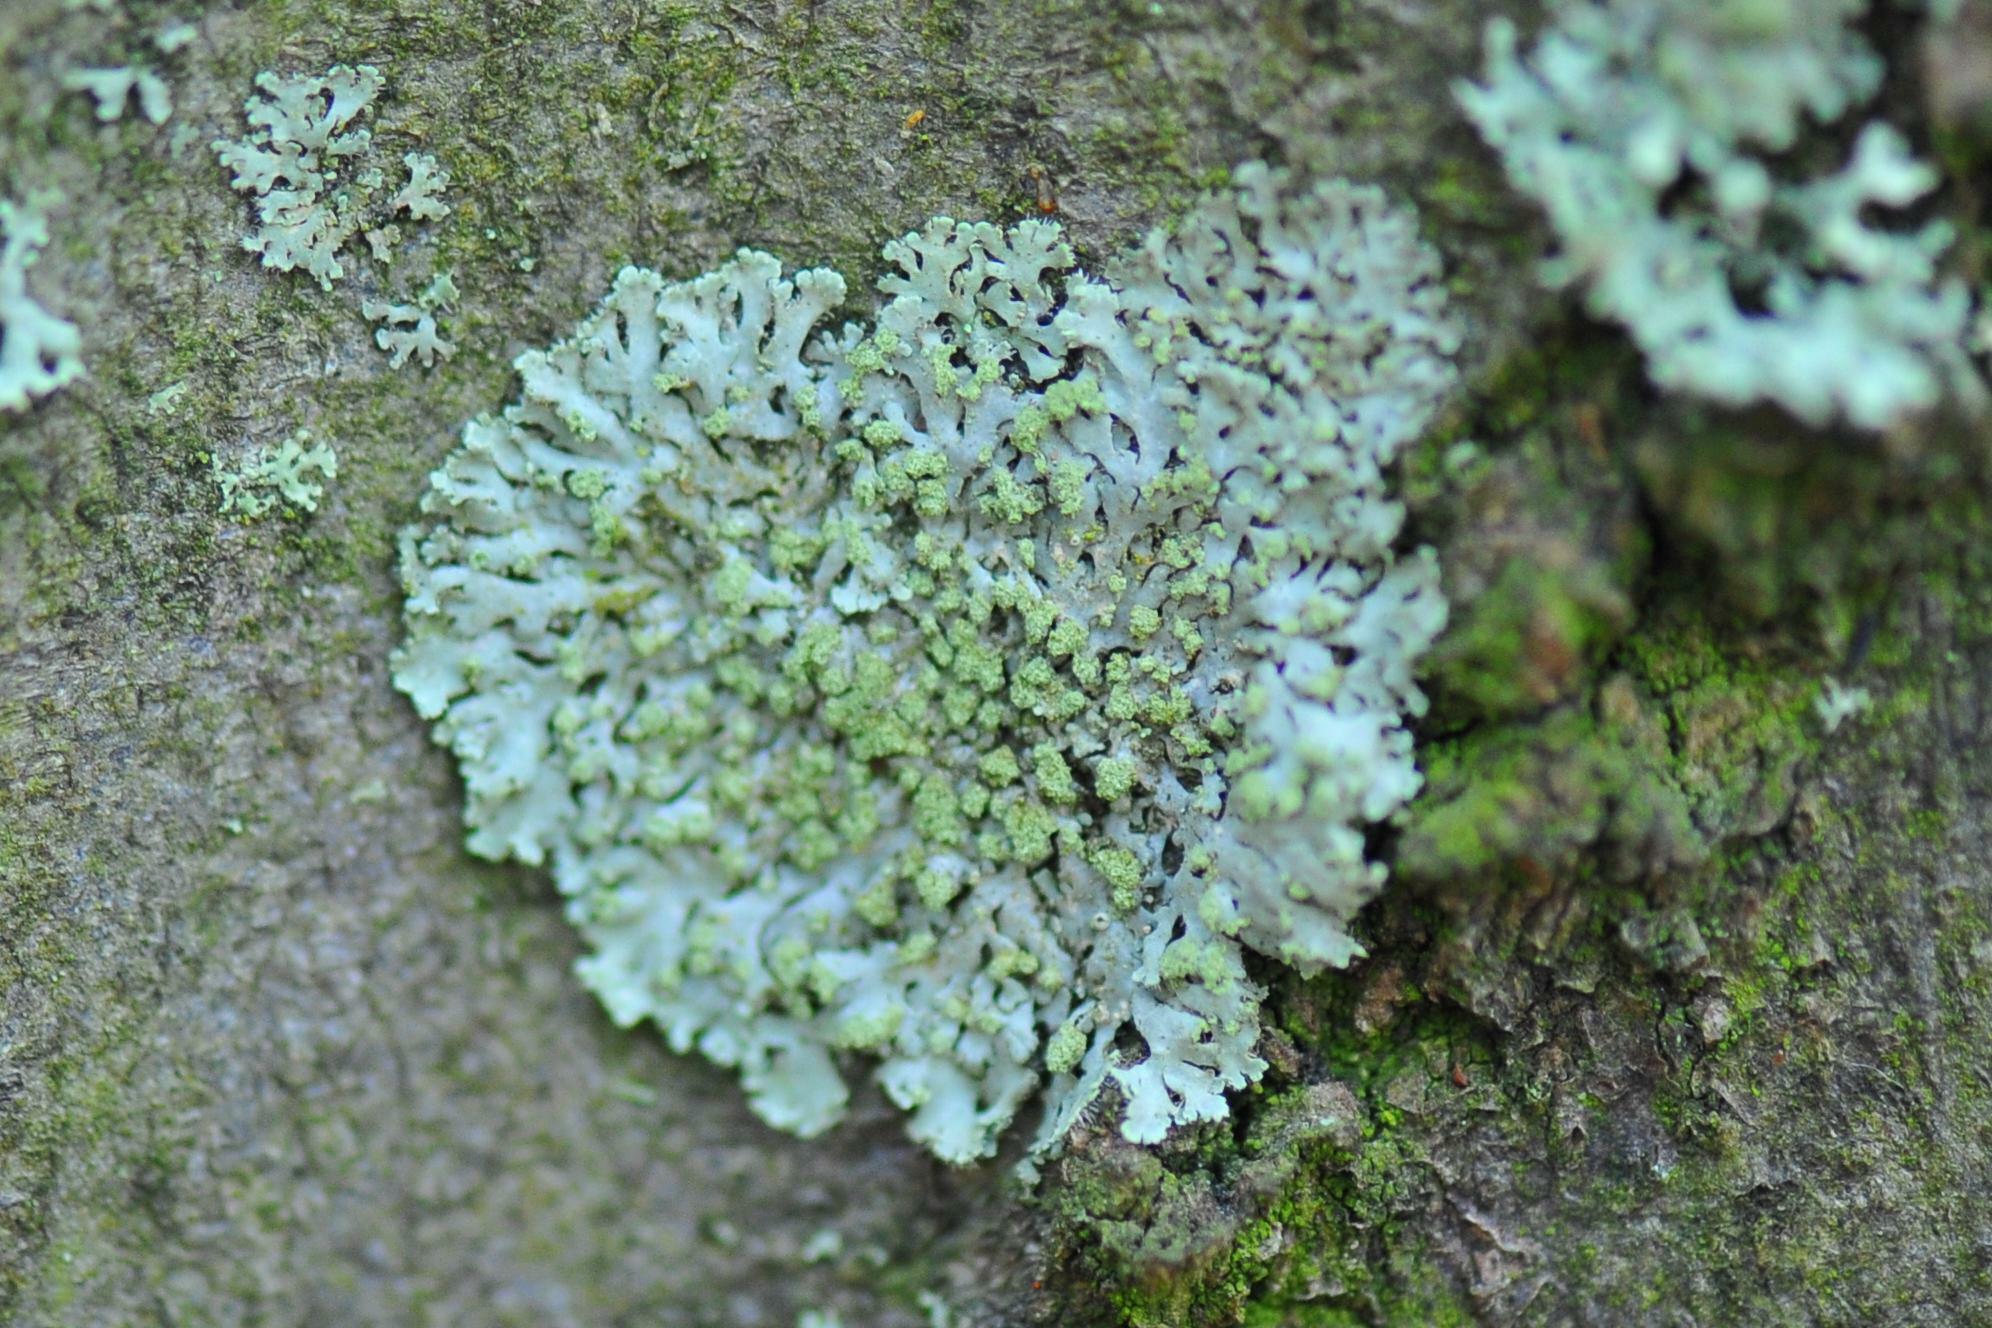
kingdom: Fungi
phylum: Ascomycota
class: Lecanoromycetes
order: Caliciales
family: Physciaceae
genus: Phaeophyscia
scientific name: Phaeophyscia orbicularis
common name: Mealy shadow lichen
